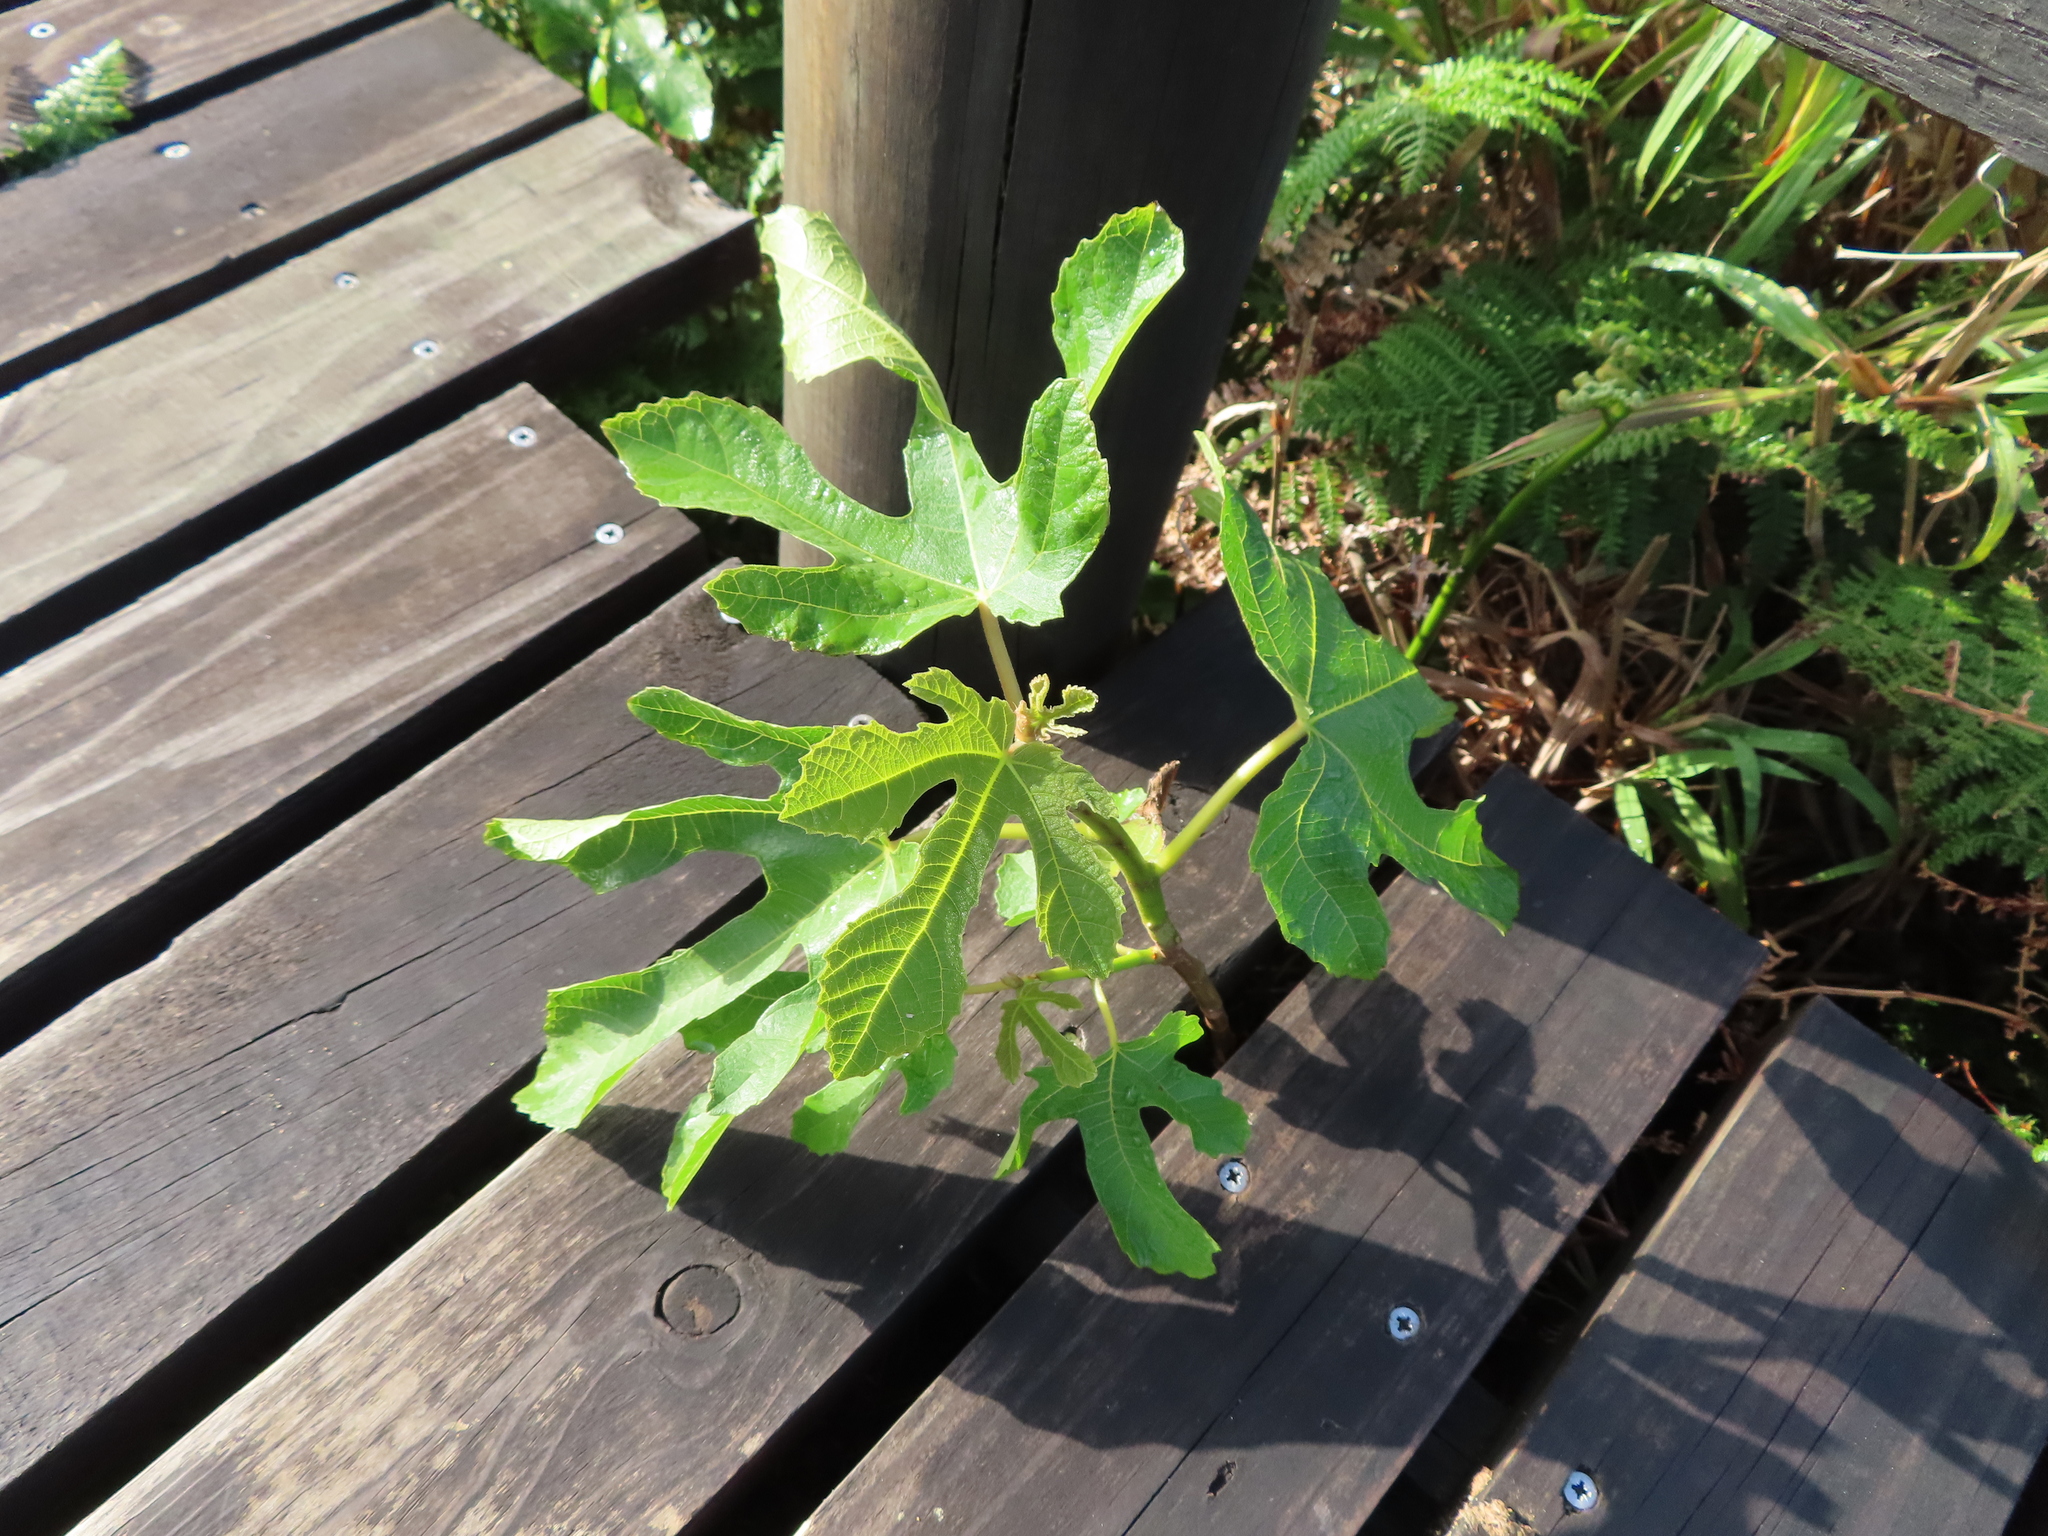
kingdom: Plantae
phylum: Tracheophyta
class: Magnoliopsida
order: Rosales
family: Moraceae
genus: Ficus
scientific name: Ficus carica
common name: Fig
